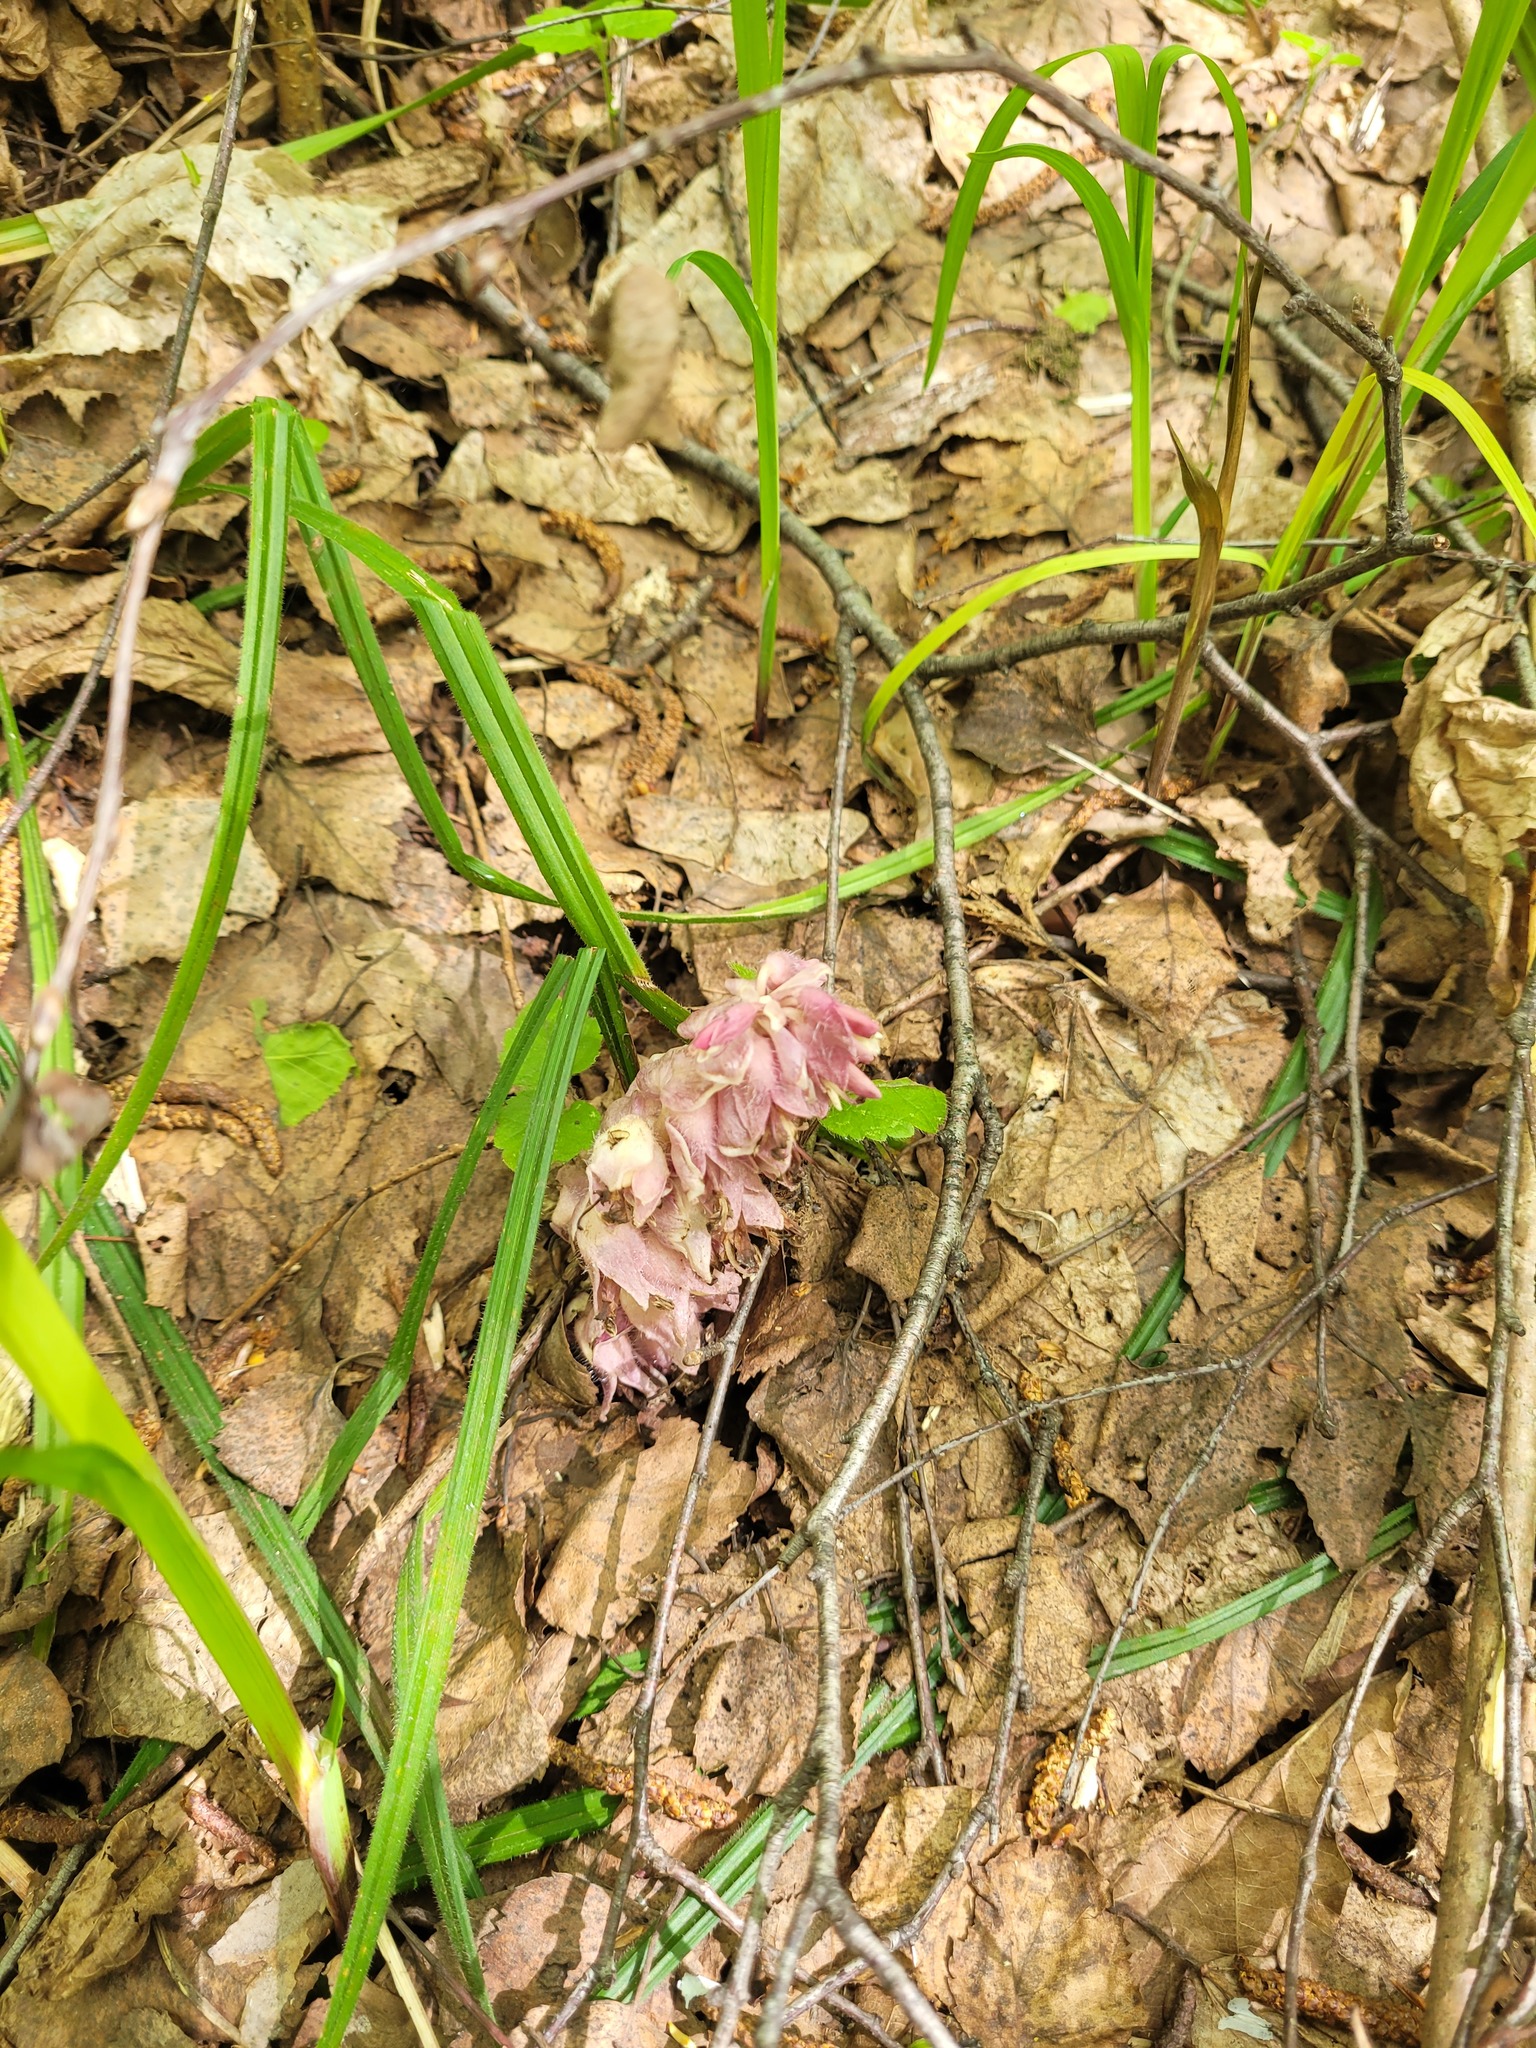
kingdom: Plantae
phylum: Tracheophyta
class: Magnoliopsida
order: Lamiales
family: Orobanchaceae
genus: Lathraea
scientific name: Lathraea squamaria
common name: Toothwort
